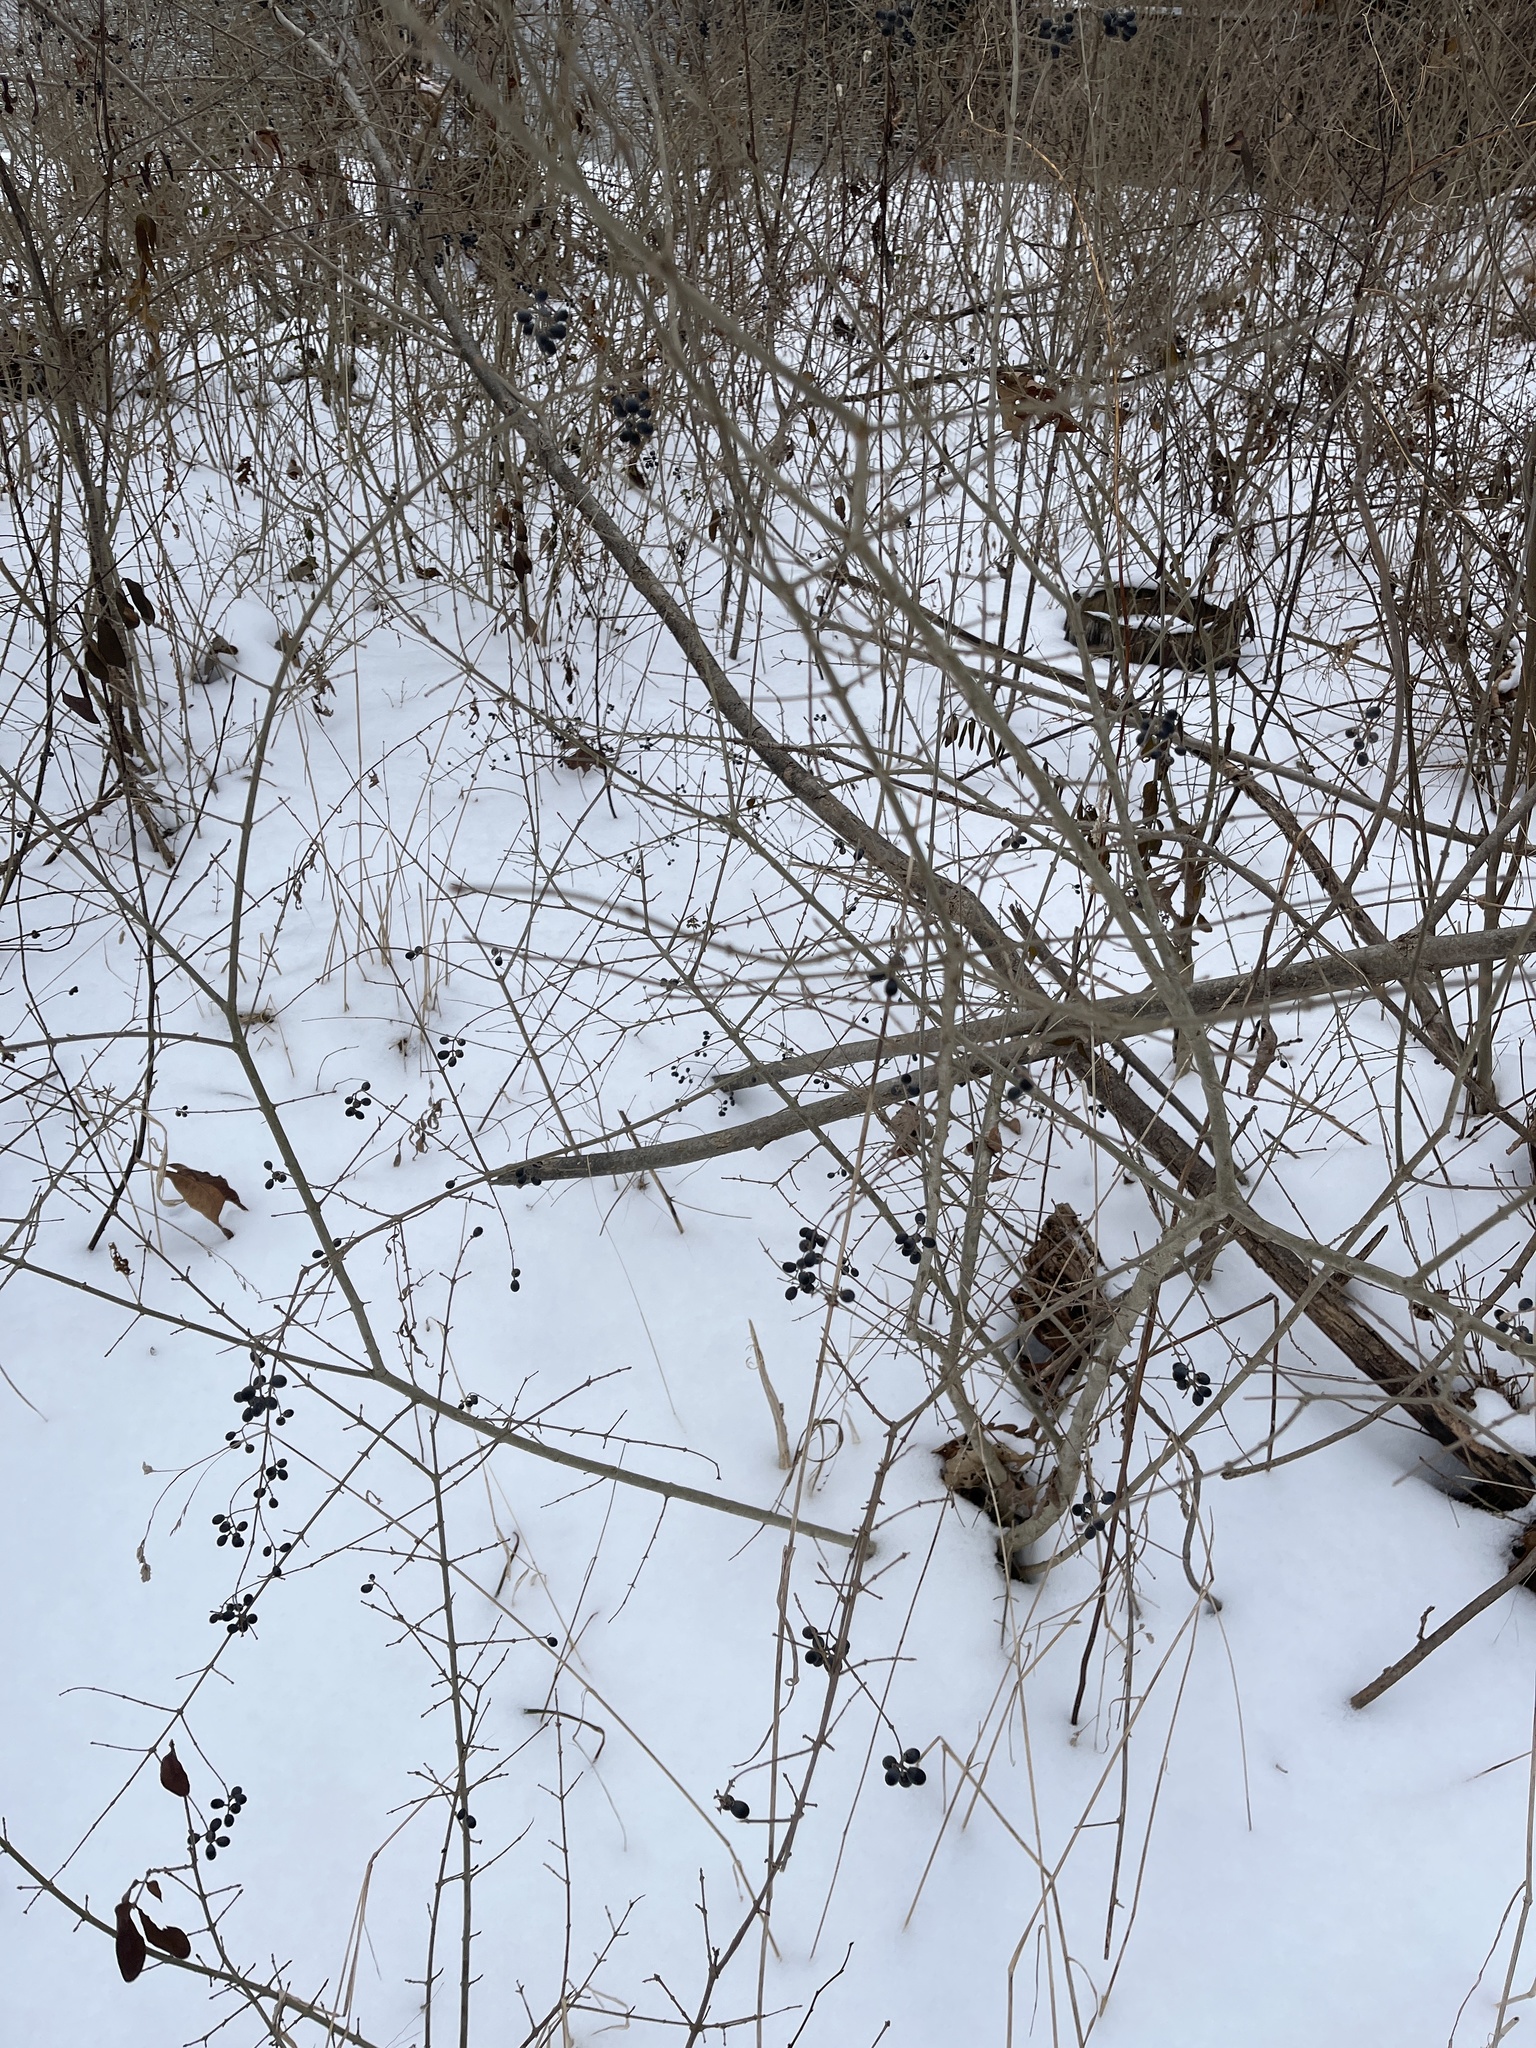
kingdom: Plantae
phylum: Tracheophyta
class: Magnoliopsida
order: Lamiales
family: Oleaceae
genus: Ligustrum
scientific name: Ligustrum obtusifolium
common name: Border privet
